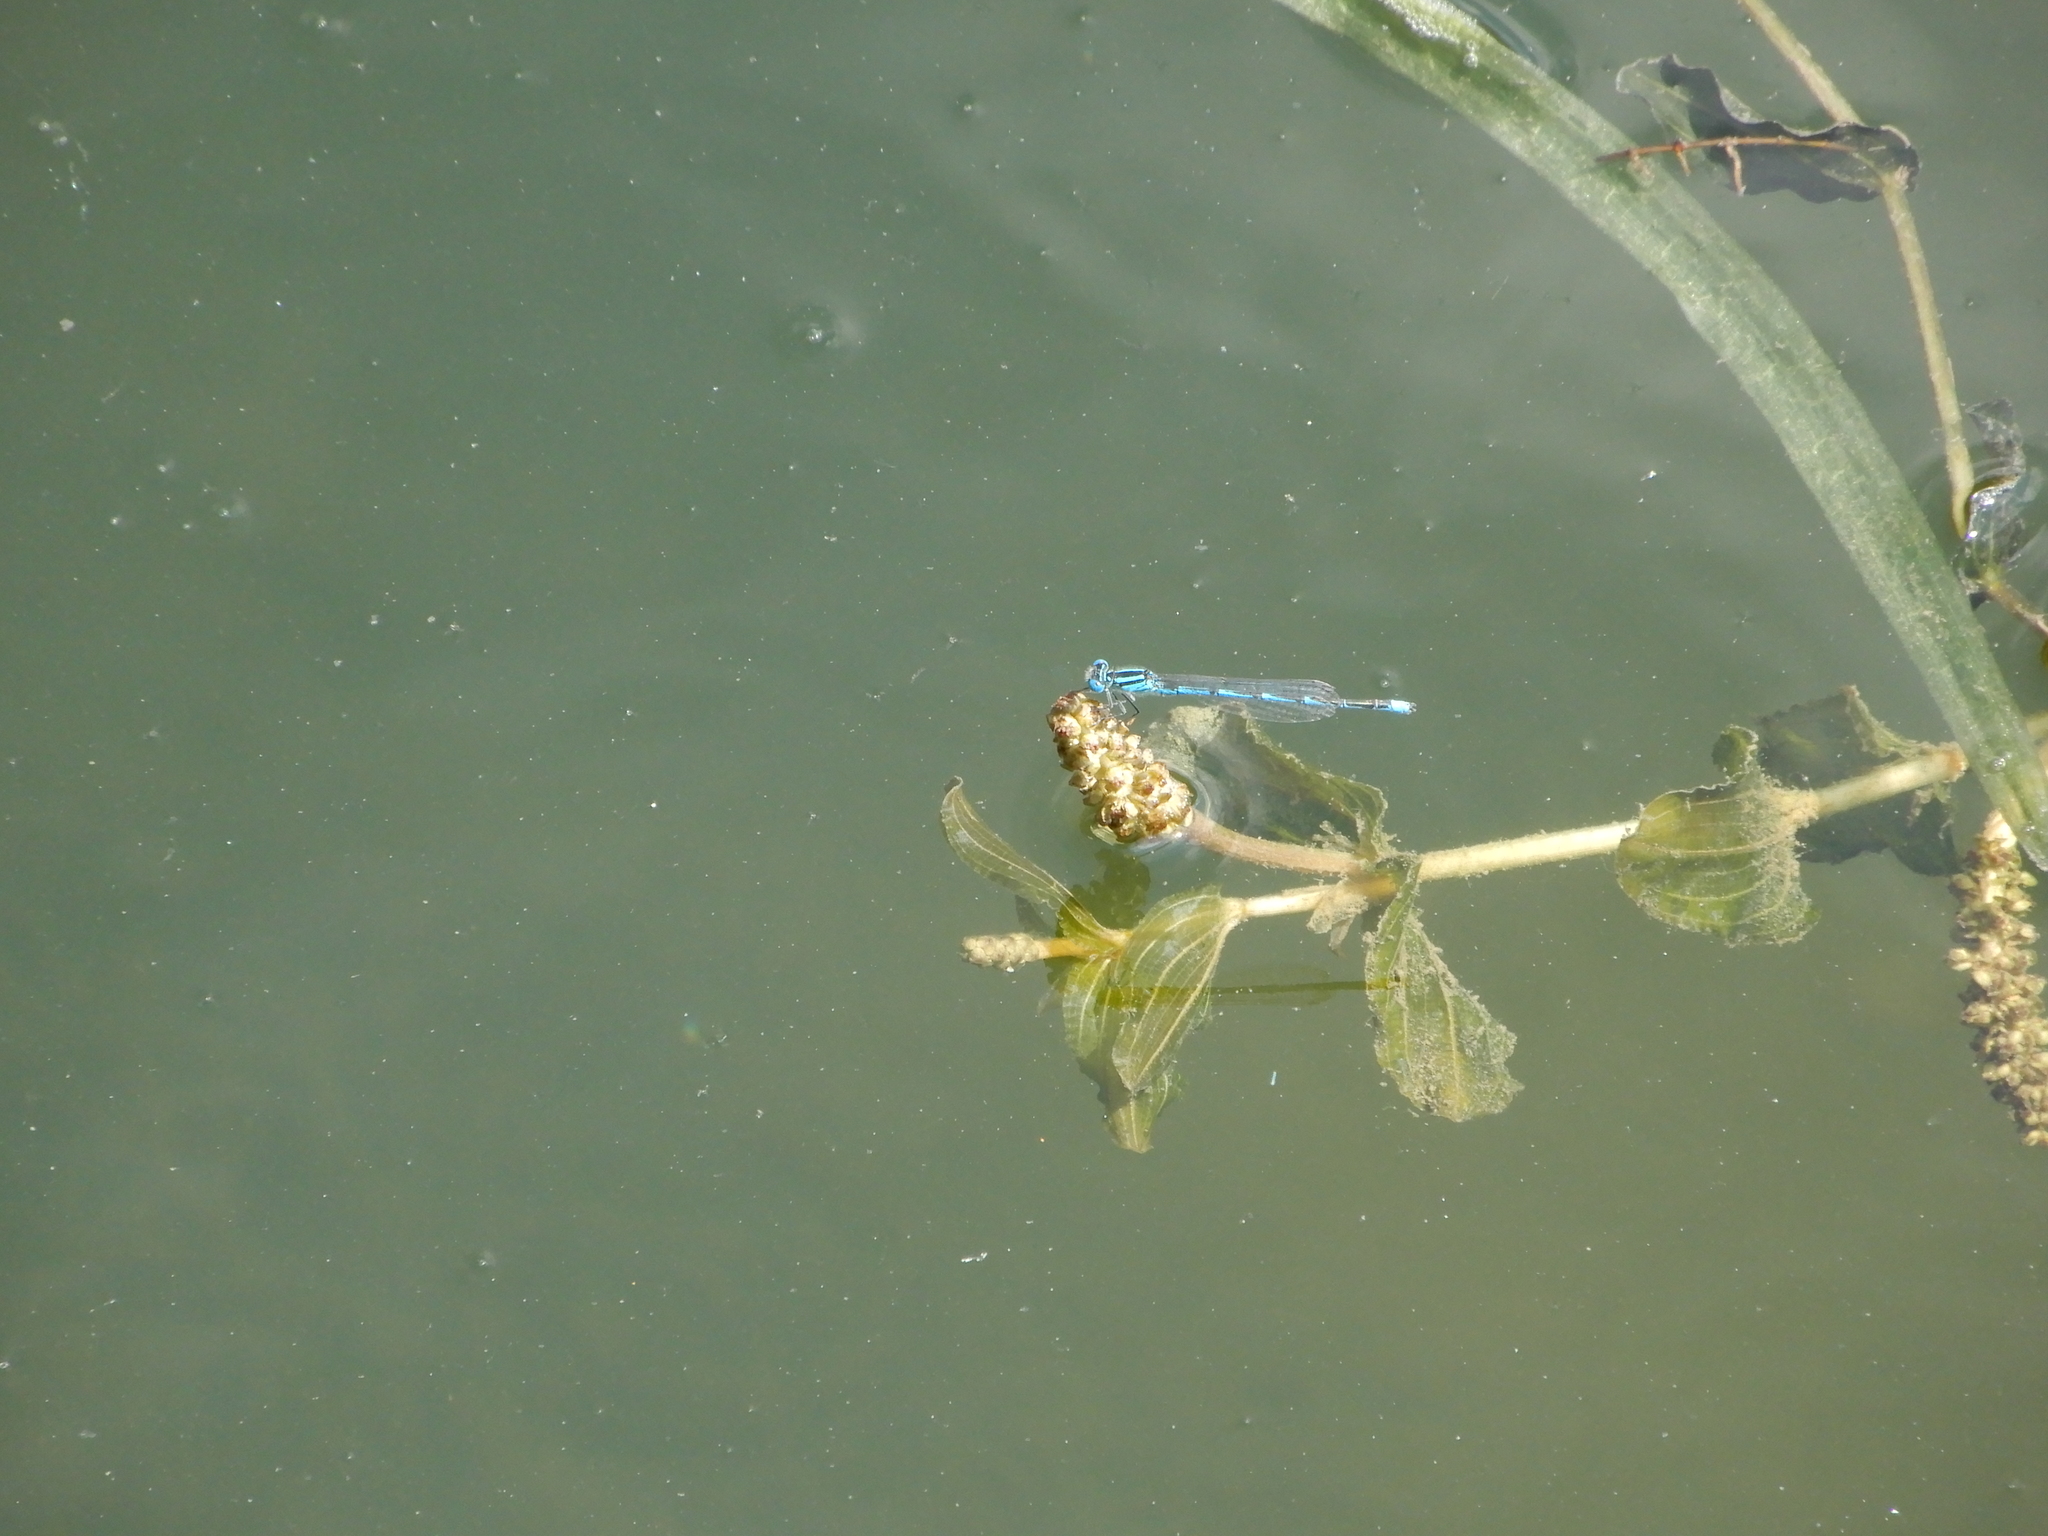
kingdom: Animalia
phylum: Arthropoda
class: Insecta
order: Odonata
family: Coenagrionidae
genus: Erythromma
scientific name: Erythromma lindenii
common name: Blue-eye
